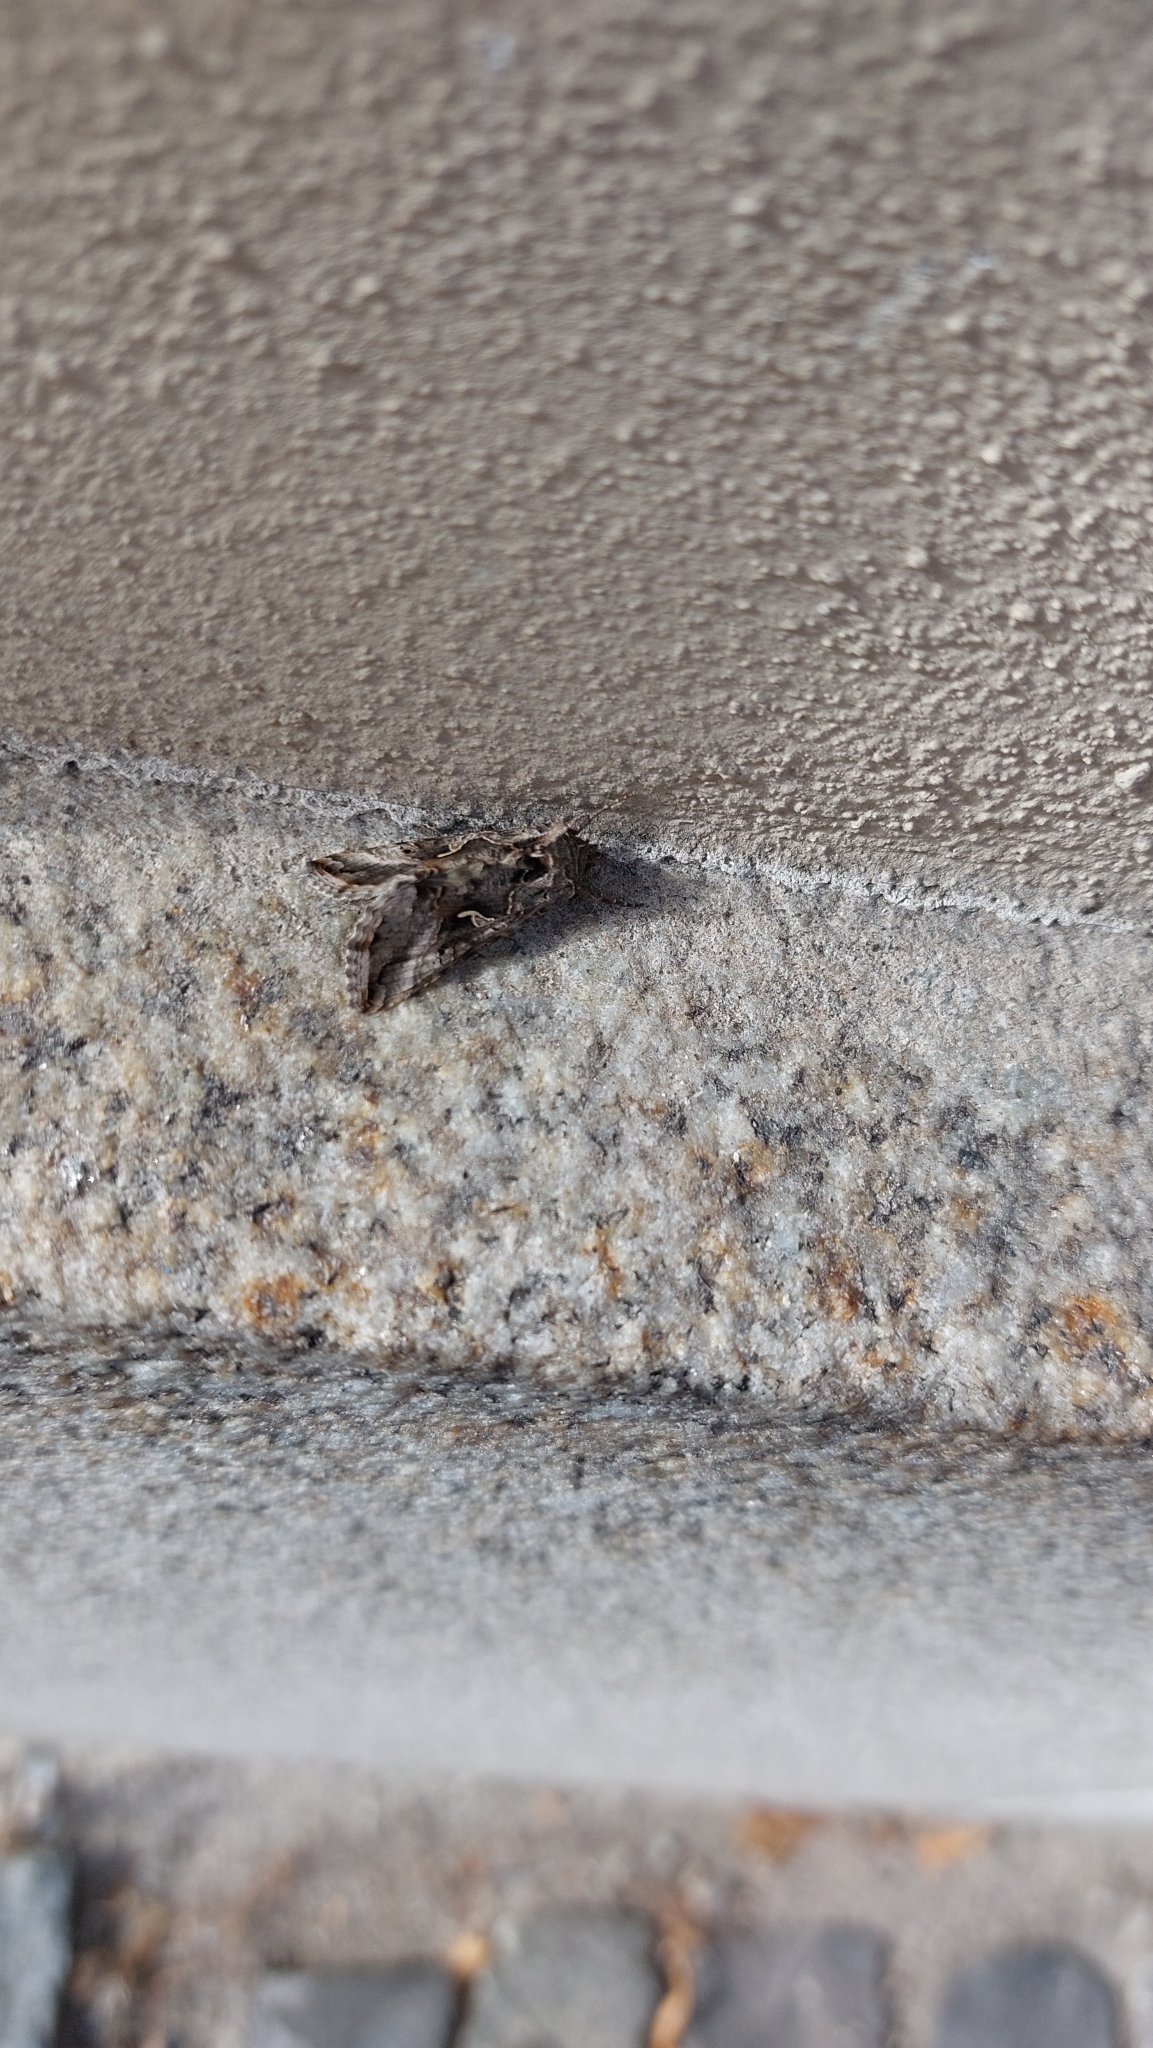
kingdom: Animalia
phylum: Arthropoda
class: Insecta
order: Lepidoptera
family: Noctuidae
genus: Autographa
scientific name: Autographa gamma
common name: Silver y
